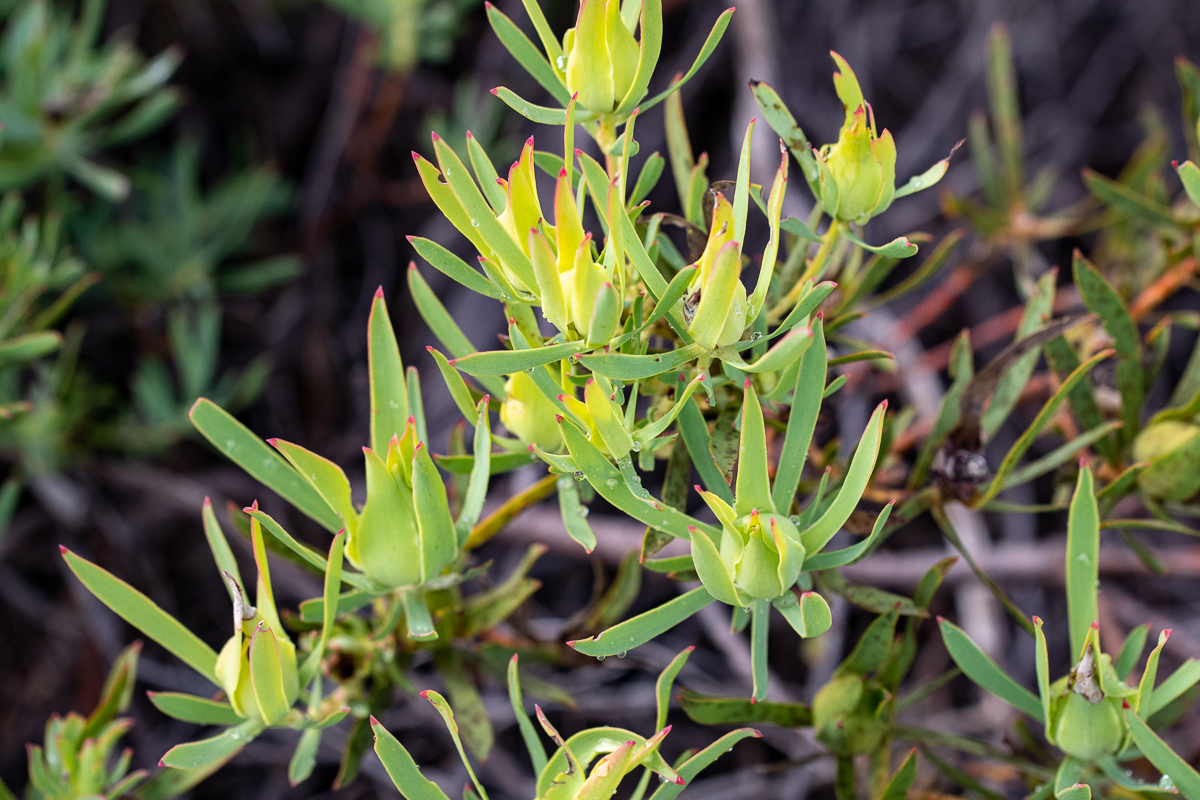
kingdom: Plantae
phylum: Tracheophyta
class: Magnoliopsida
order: Proteales
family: Proteaceae
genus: Leucadendron
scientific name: Leucadendron salignum
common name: Common sunshine conebush
